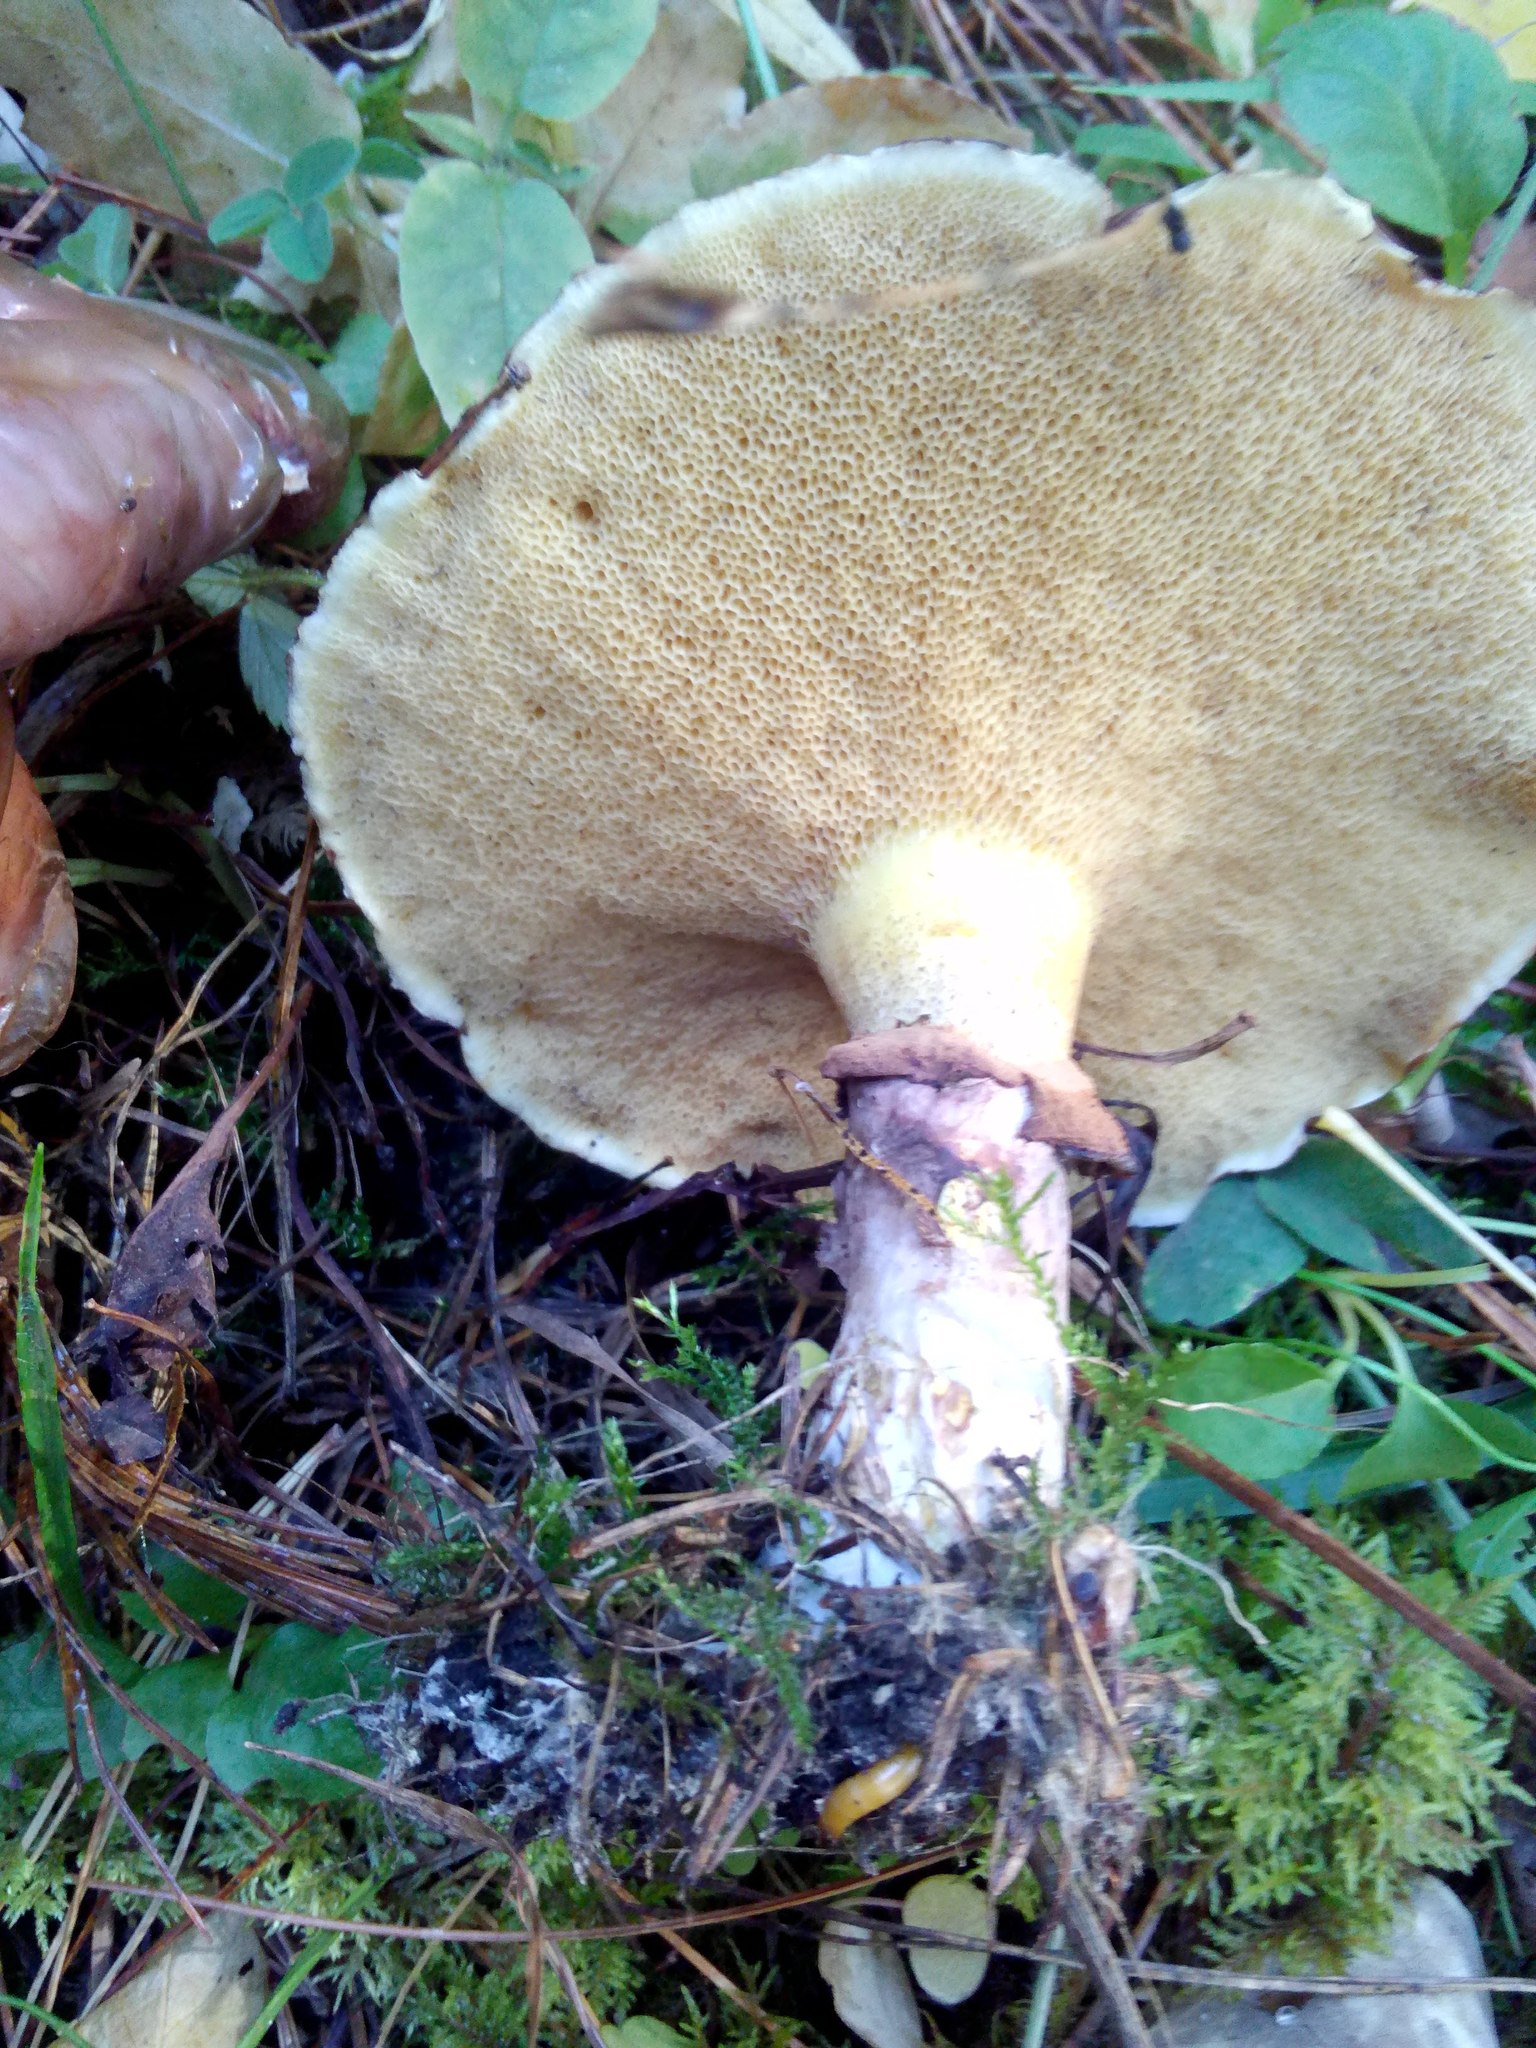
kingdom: Fungi
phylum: Basidiomycota
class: Agaricomycetes
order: Boletales
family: Suillaceae
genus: Suillus
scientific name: Suillus luteus
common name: Slippery jack
